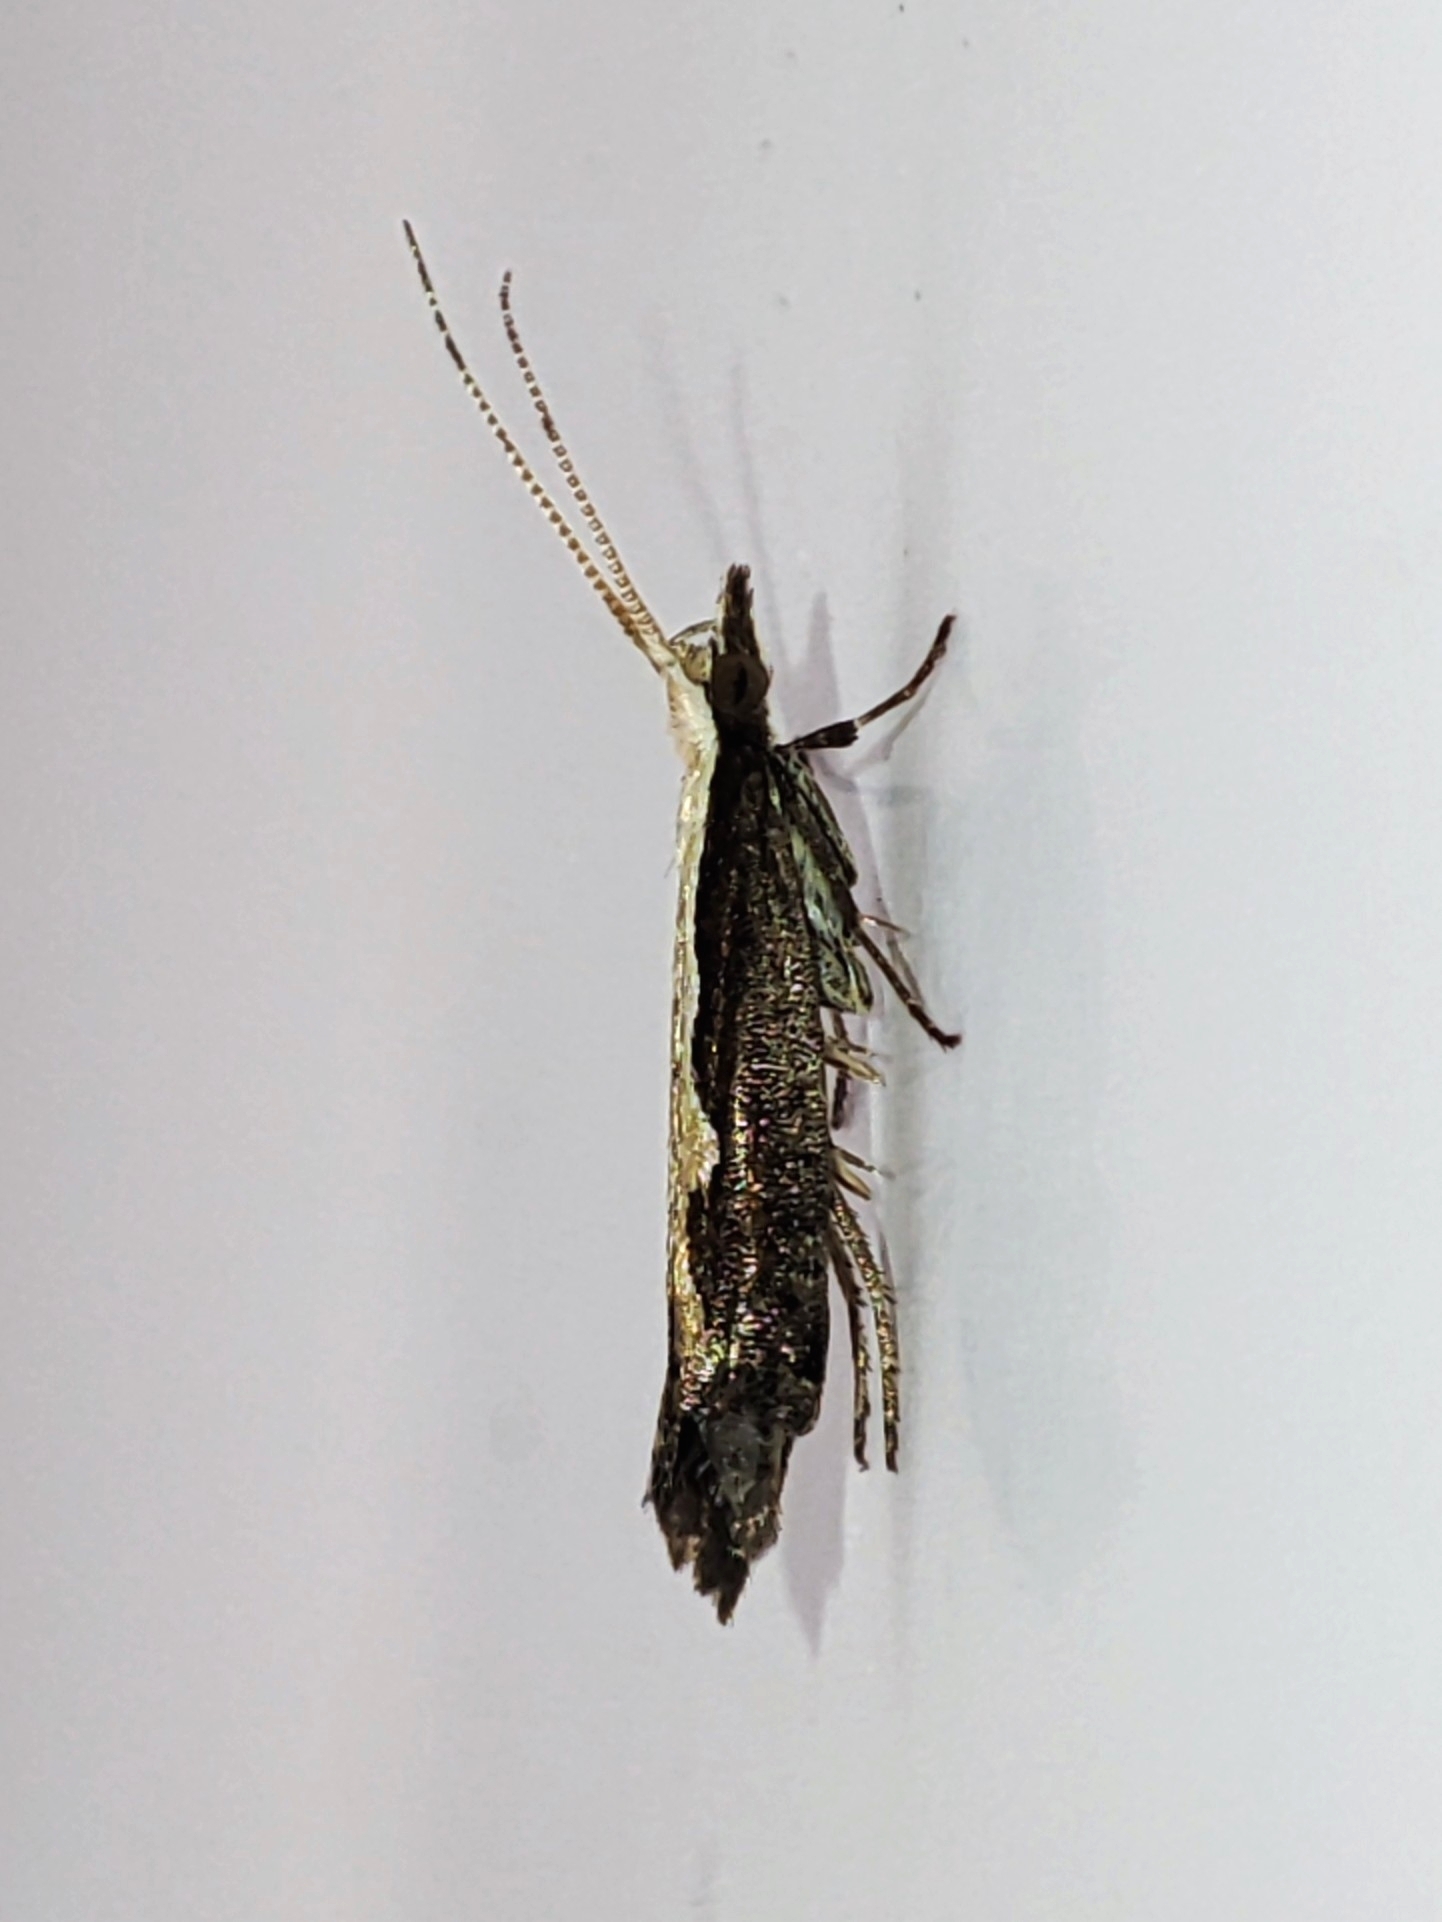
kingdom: Animalia
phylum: Arthropoda
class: Insecta
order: Lepidoptera
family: Plutellidae
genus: Plutella
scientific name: Plutella xylostella
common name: Diamond-back moth
